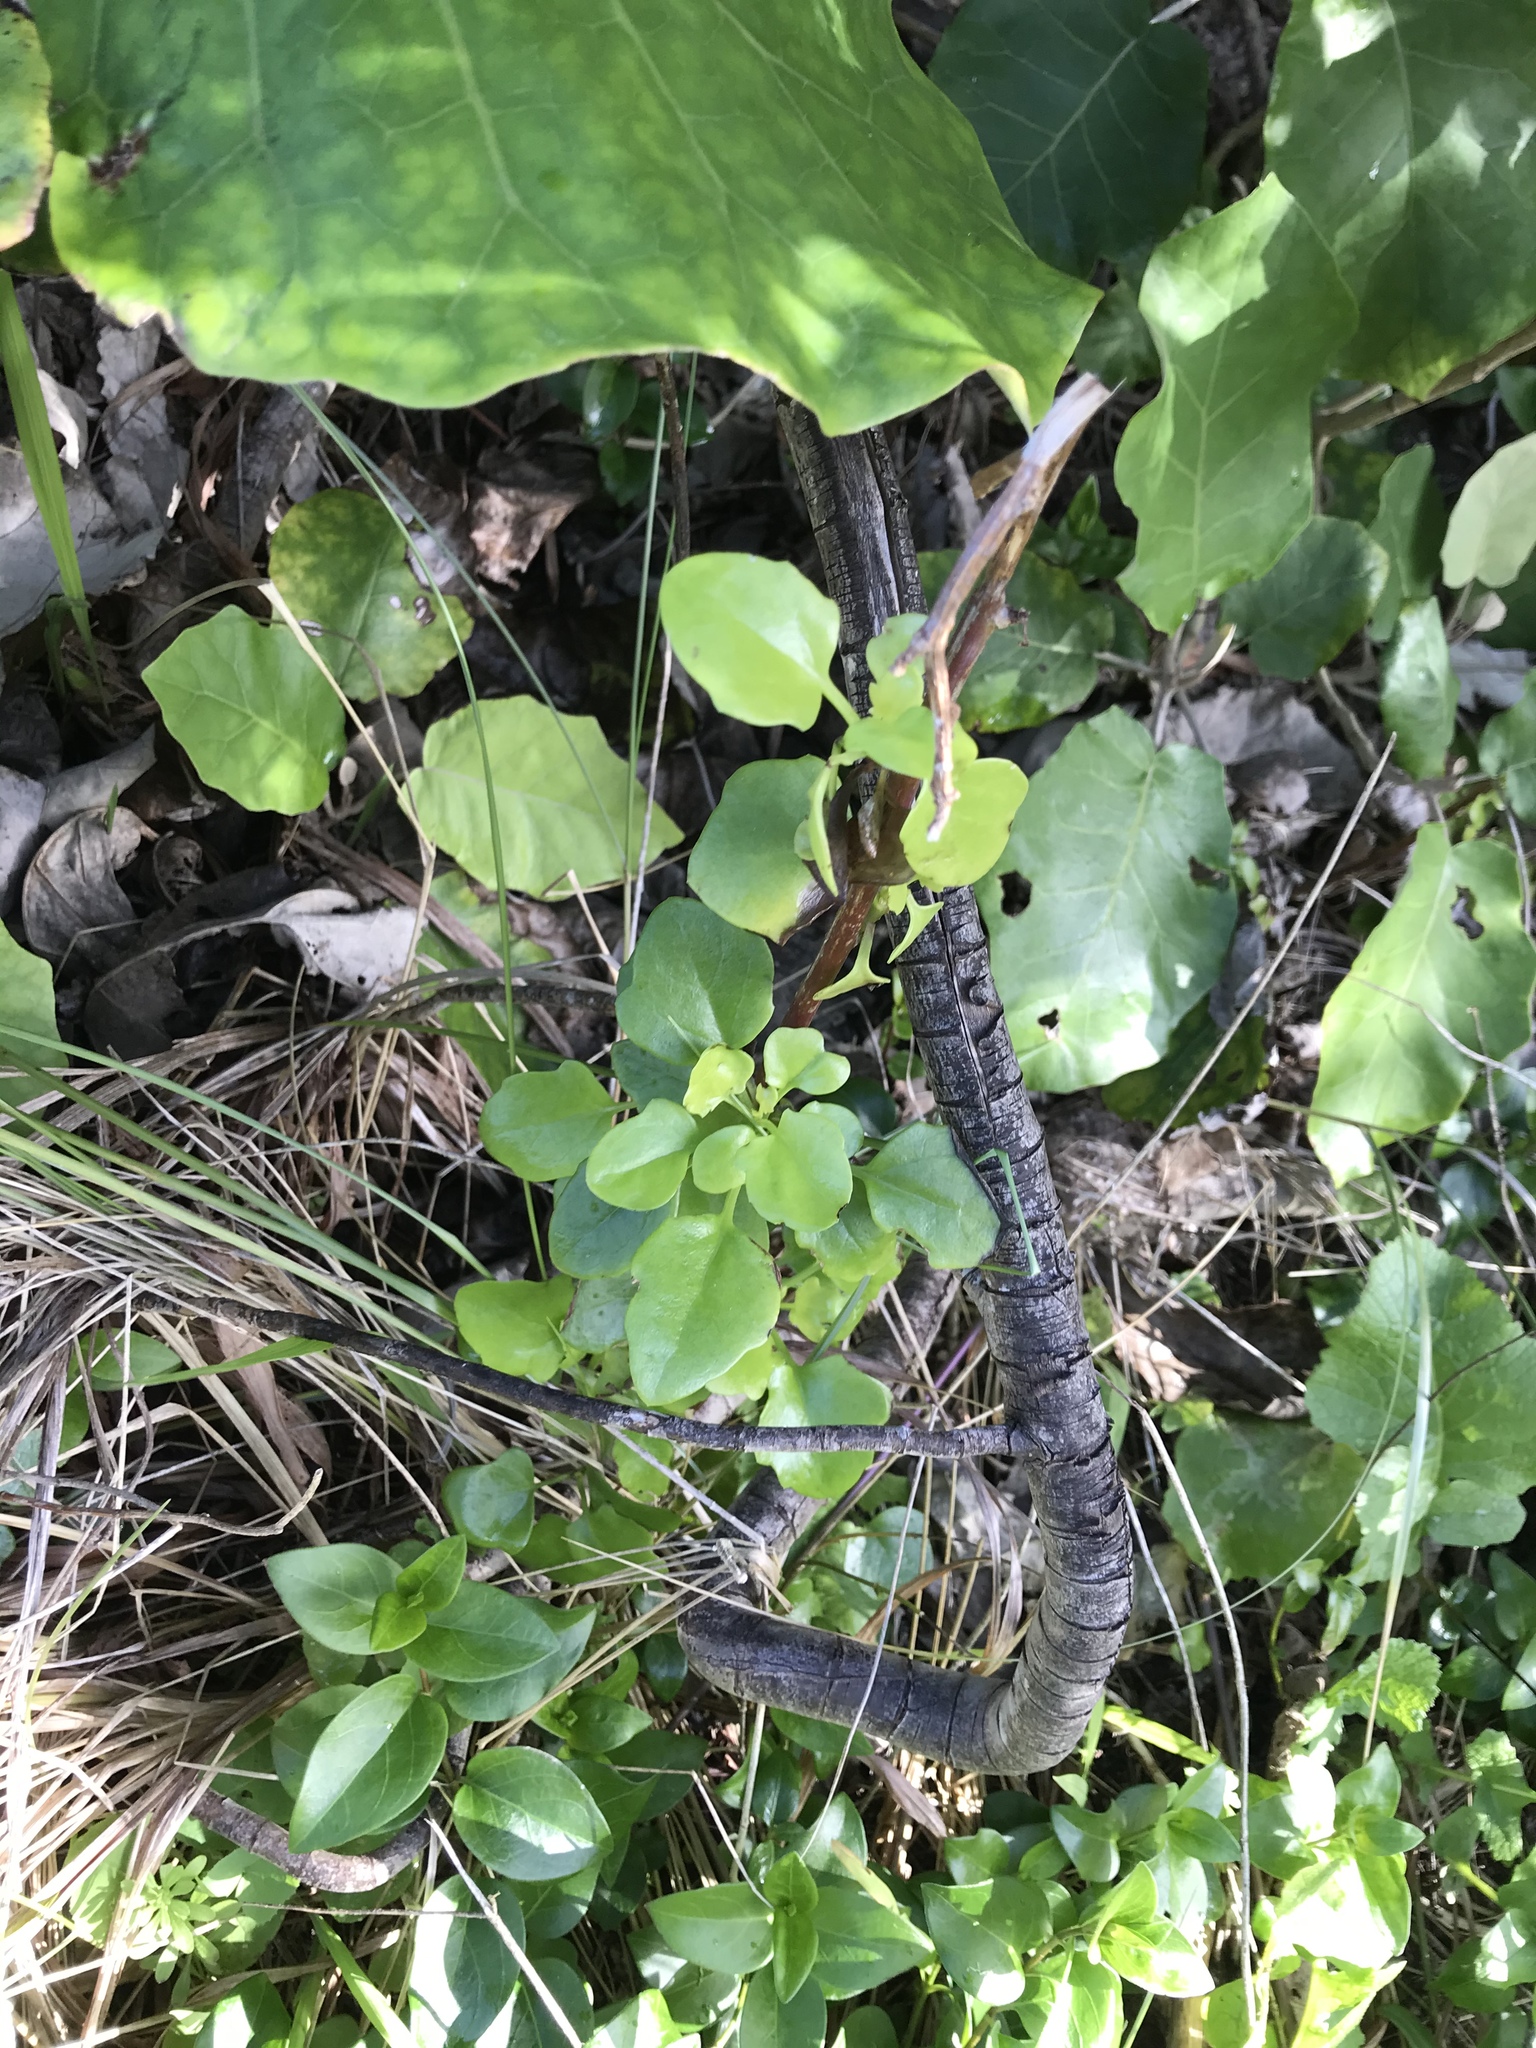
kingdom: Plantae
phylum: Tracheophyta
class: Magnoliopsida
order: Asterales
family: Asteraceae
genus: Senecio
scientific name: Senecio angulatus
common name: Climbing groundsel
